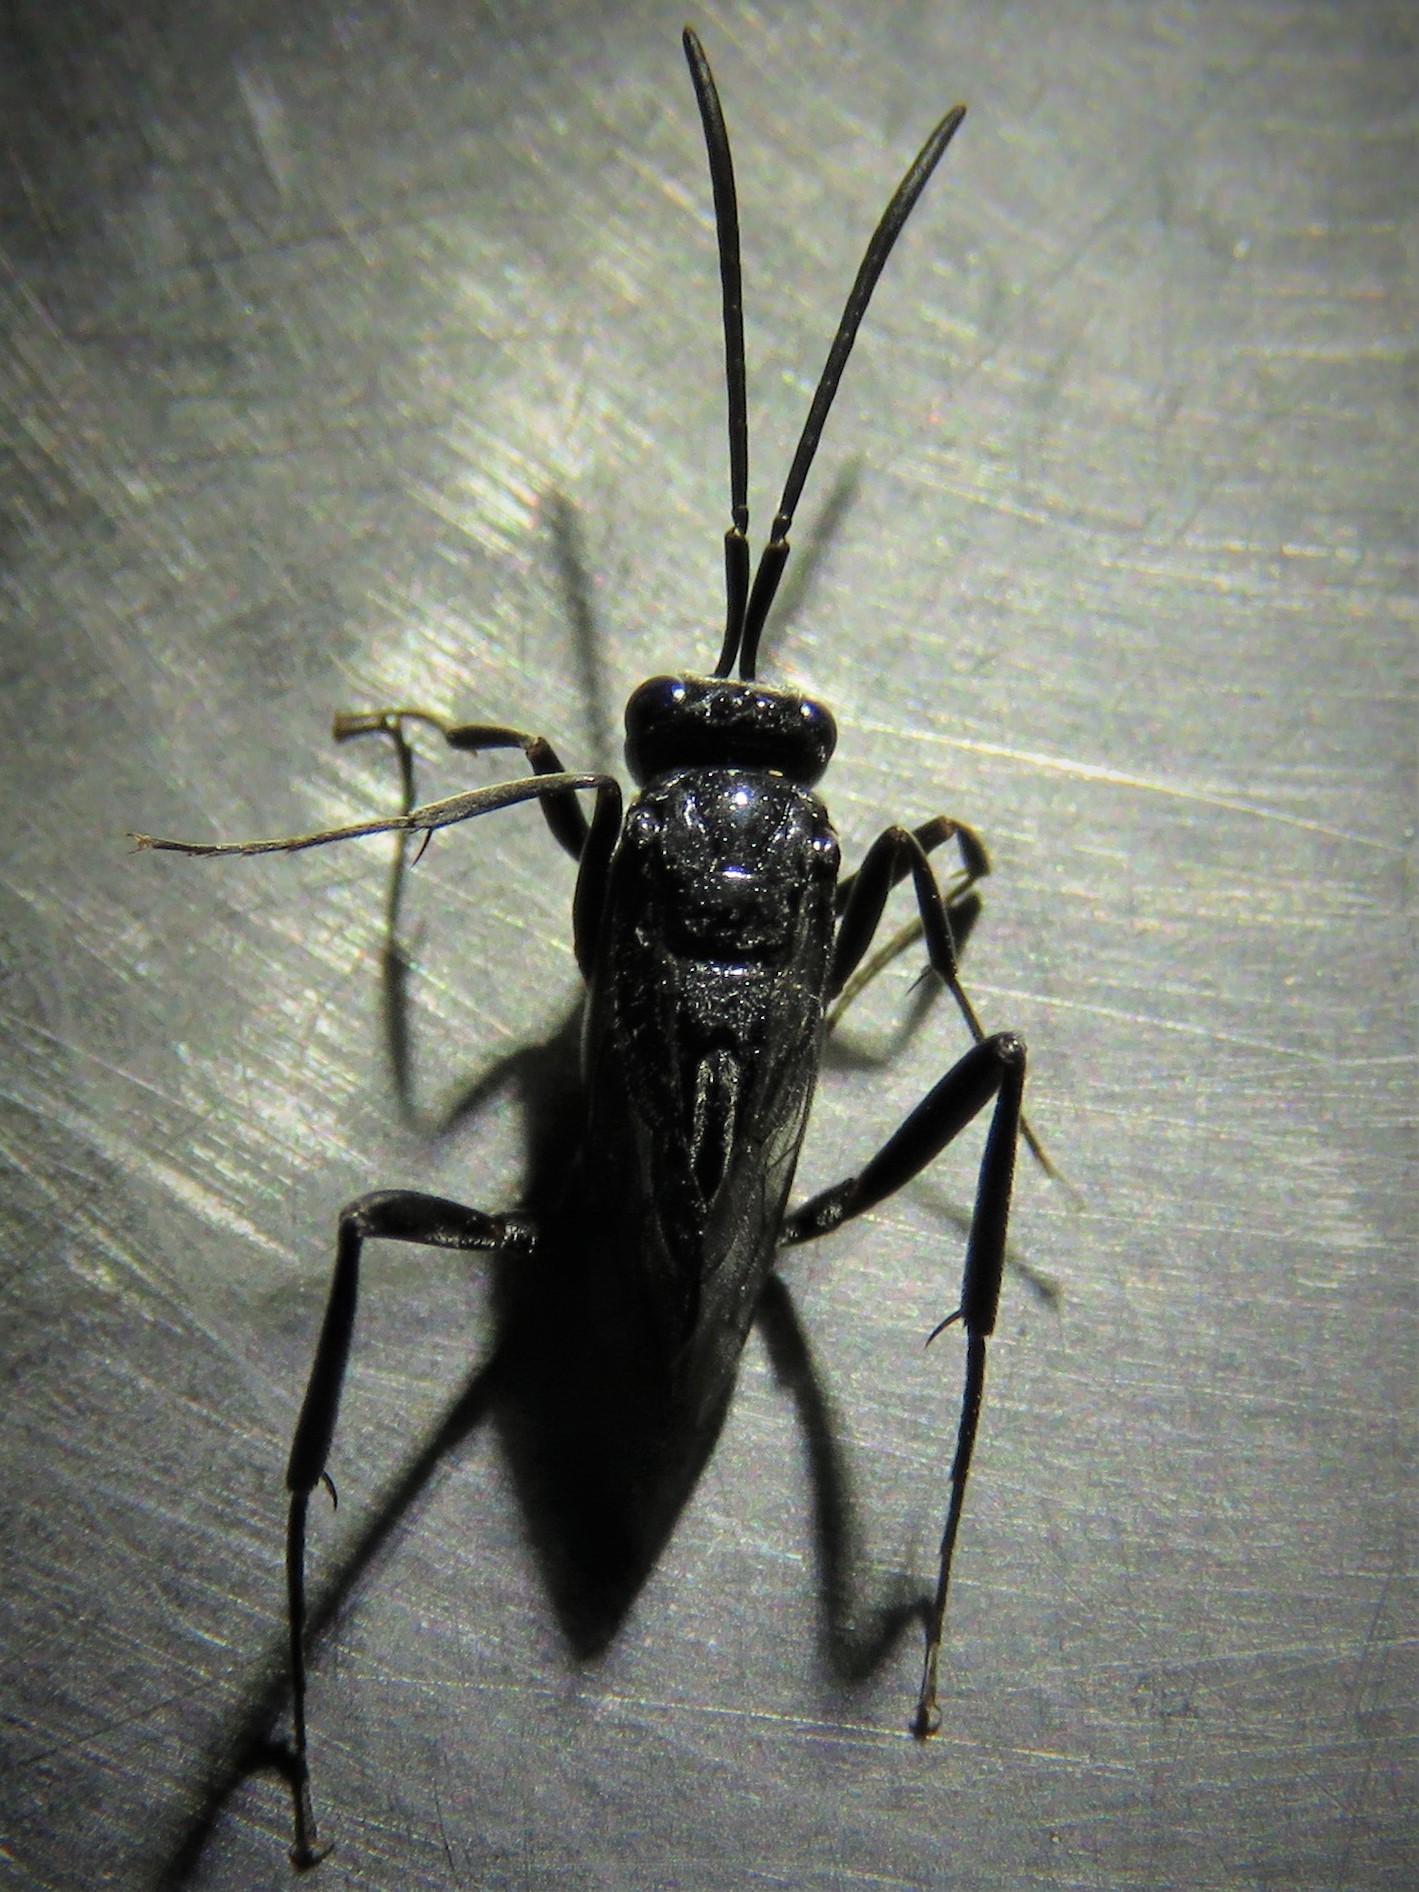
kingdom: Animalia
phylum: Arthropoda
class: Insecta
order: Hymenoptera
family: Evaniidae
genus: Evania
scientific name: Evania appendigaster
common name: Ensign wasp
